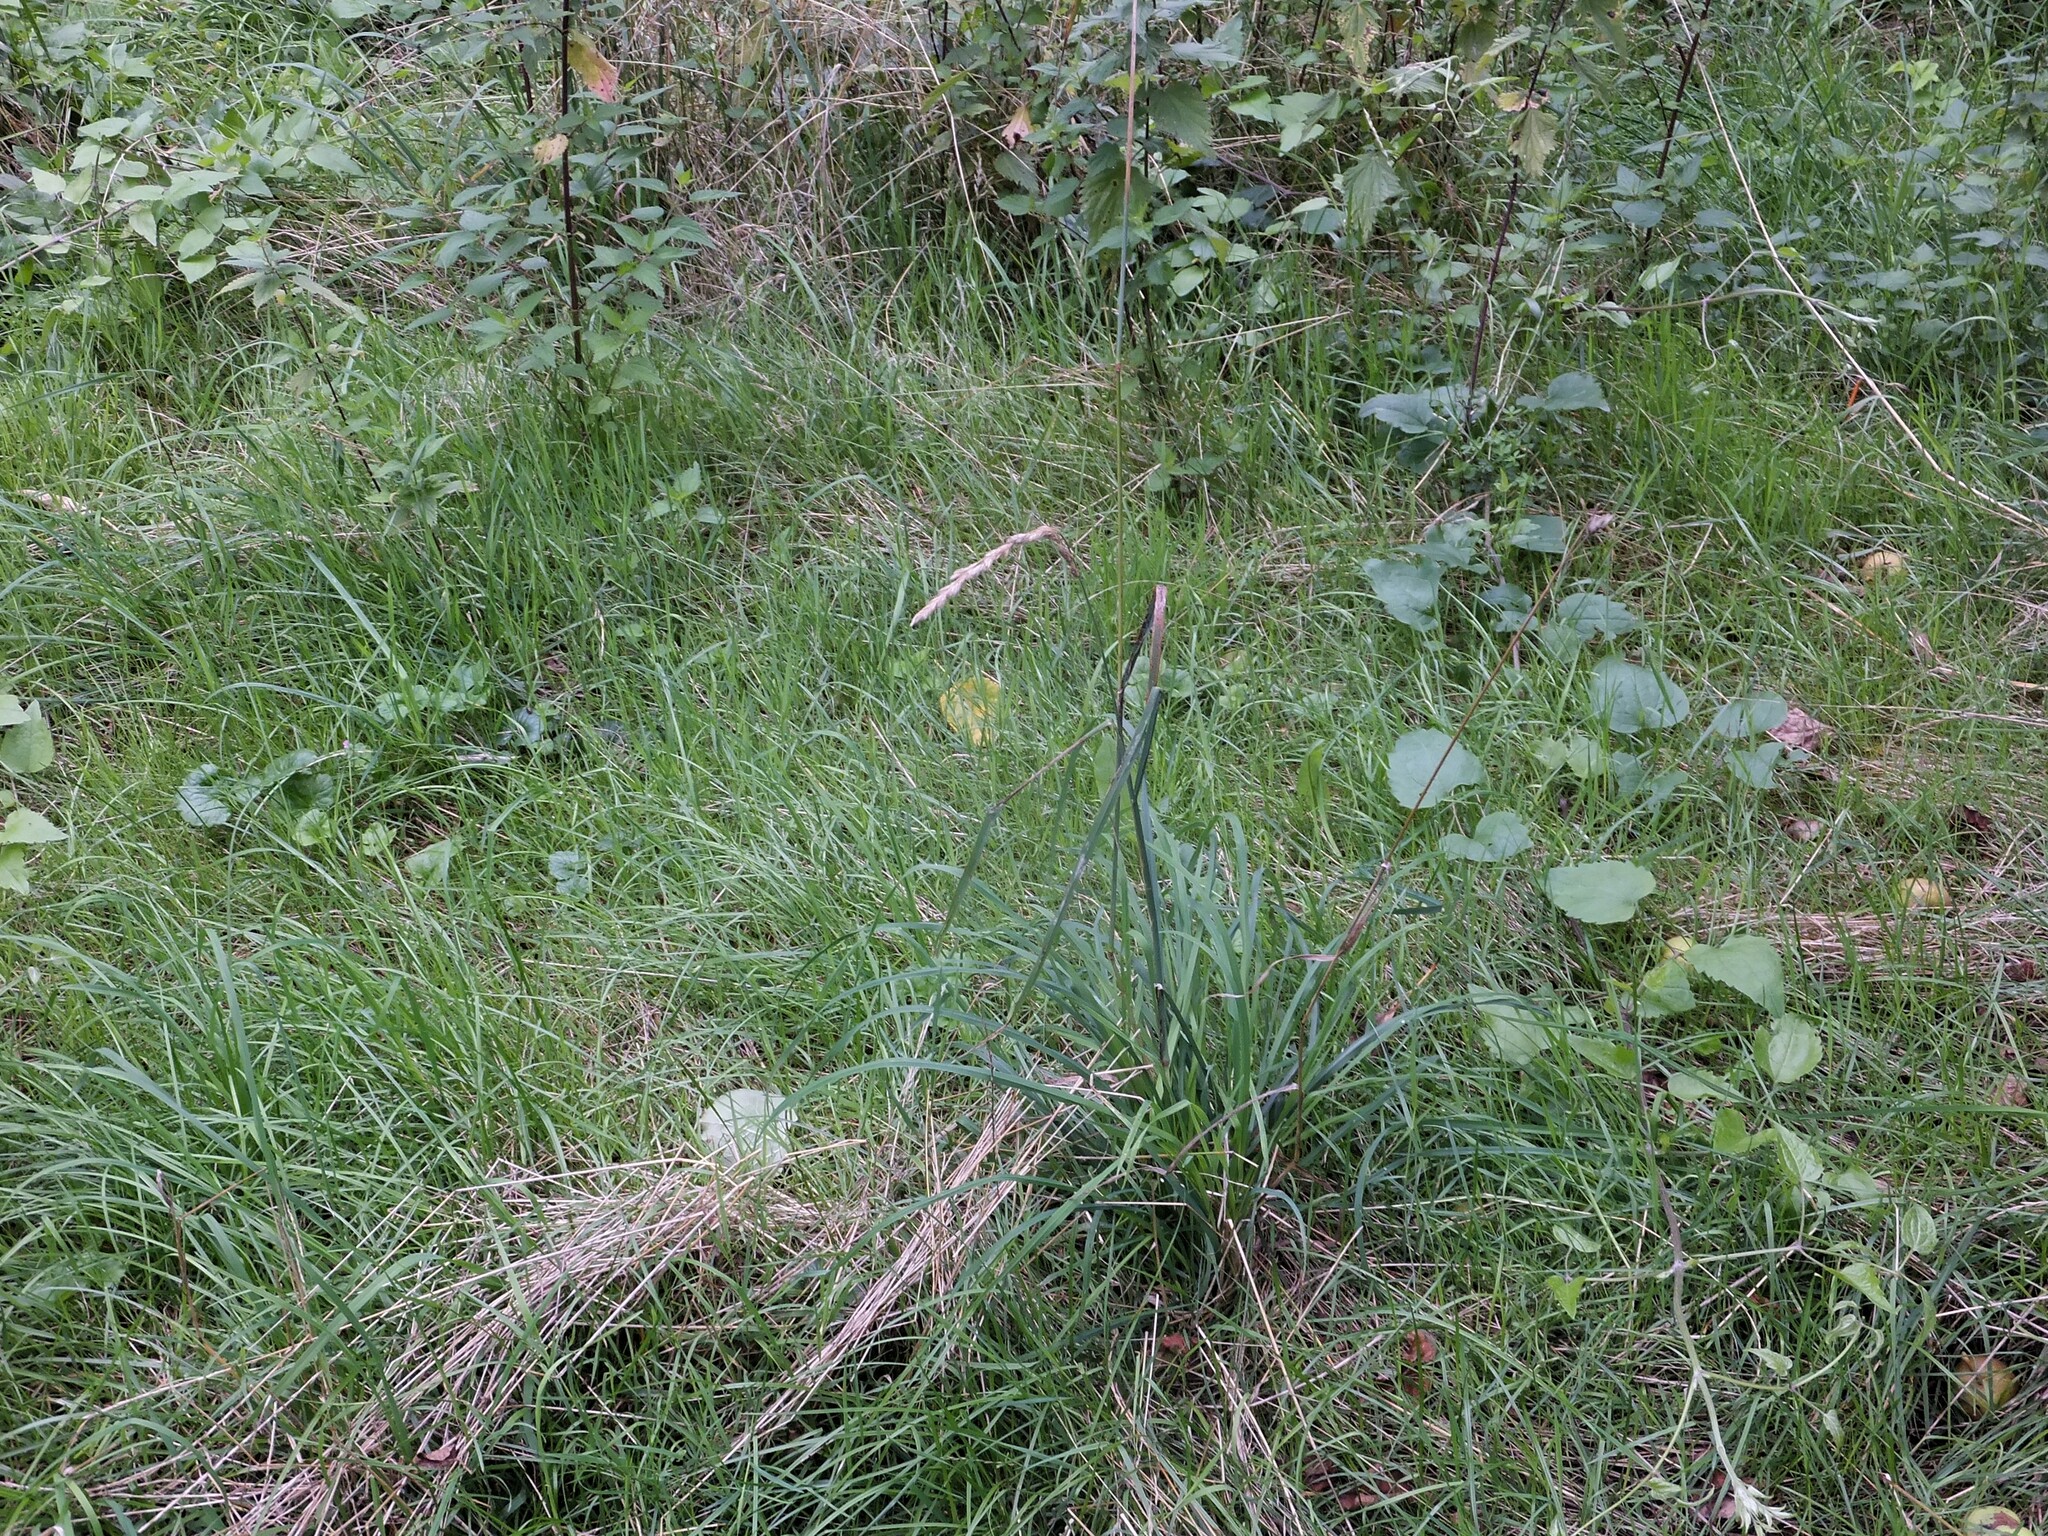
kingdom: Plantae
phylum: Tracheophyta
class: Liliopsida
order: Poales
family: Poaceae
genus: Dactylis
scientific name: Dactylis glomerata
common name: Orchardgrass
